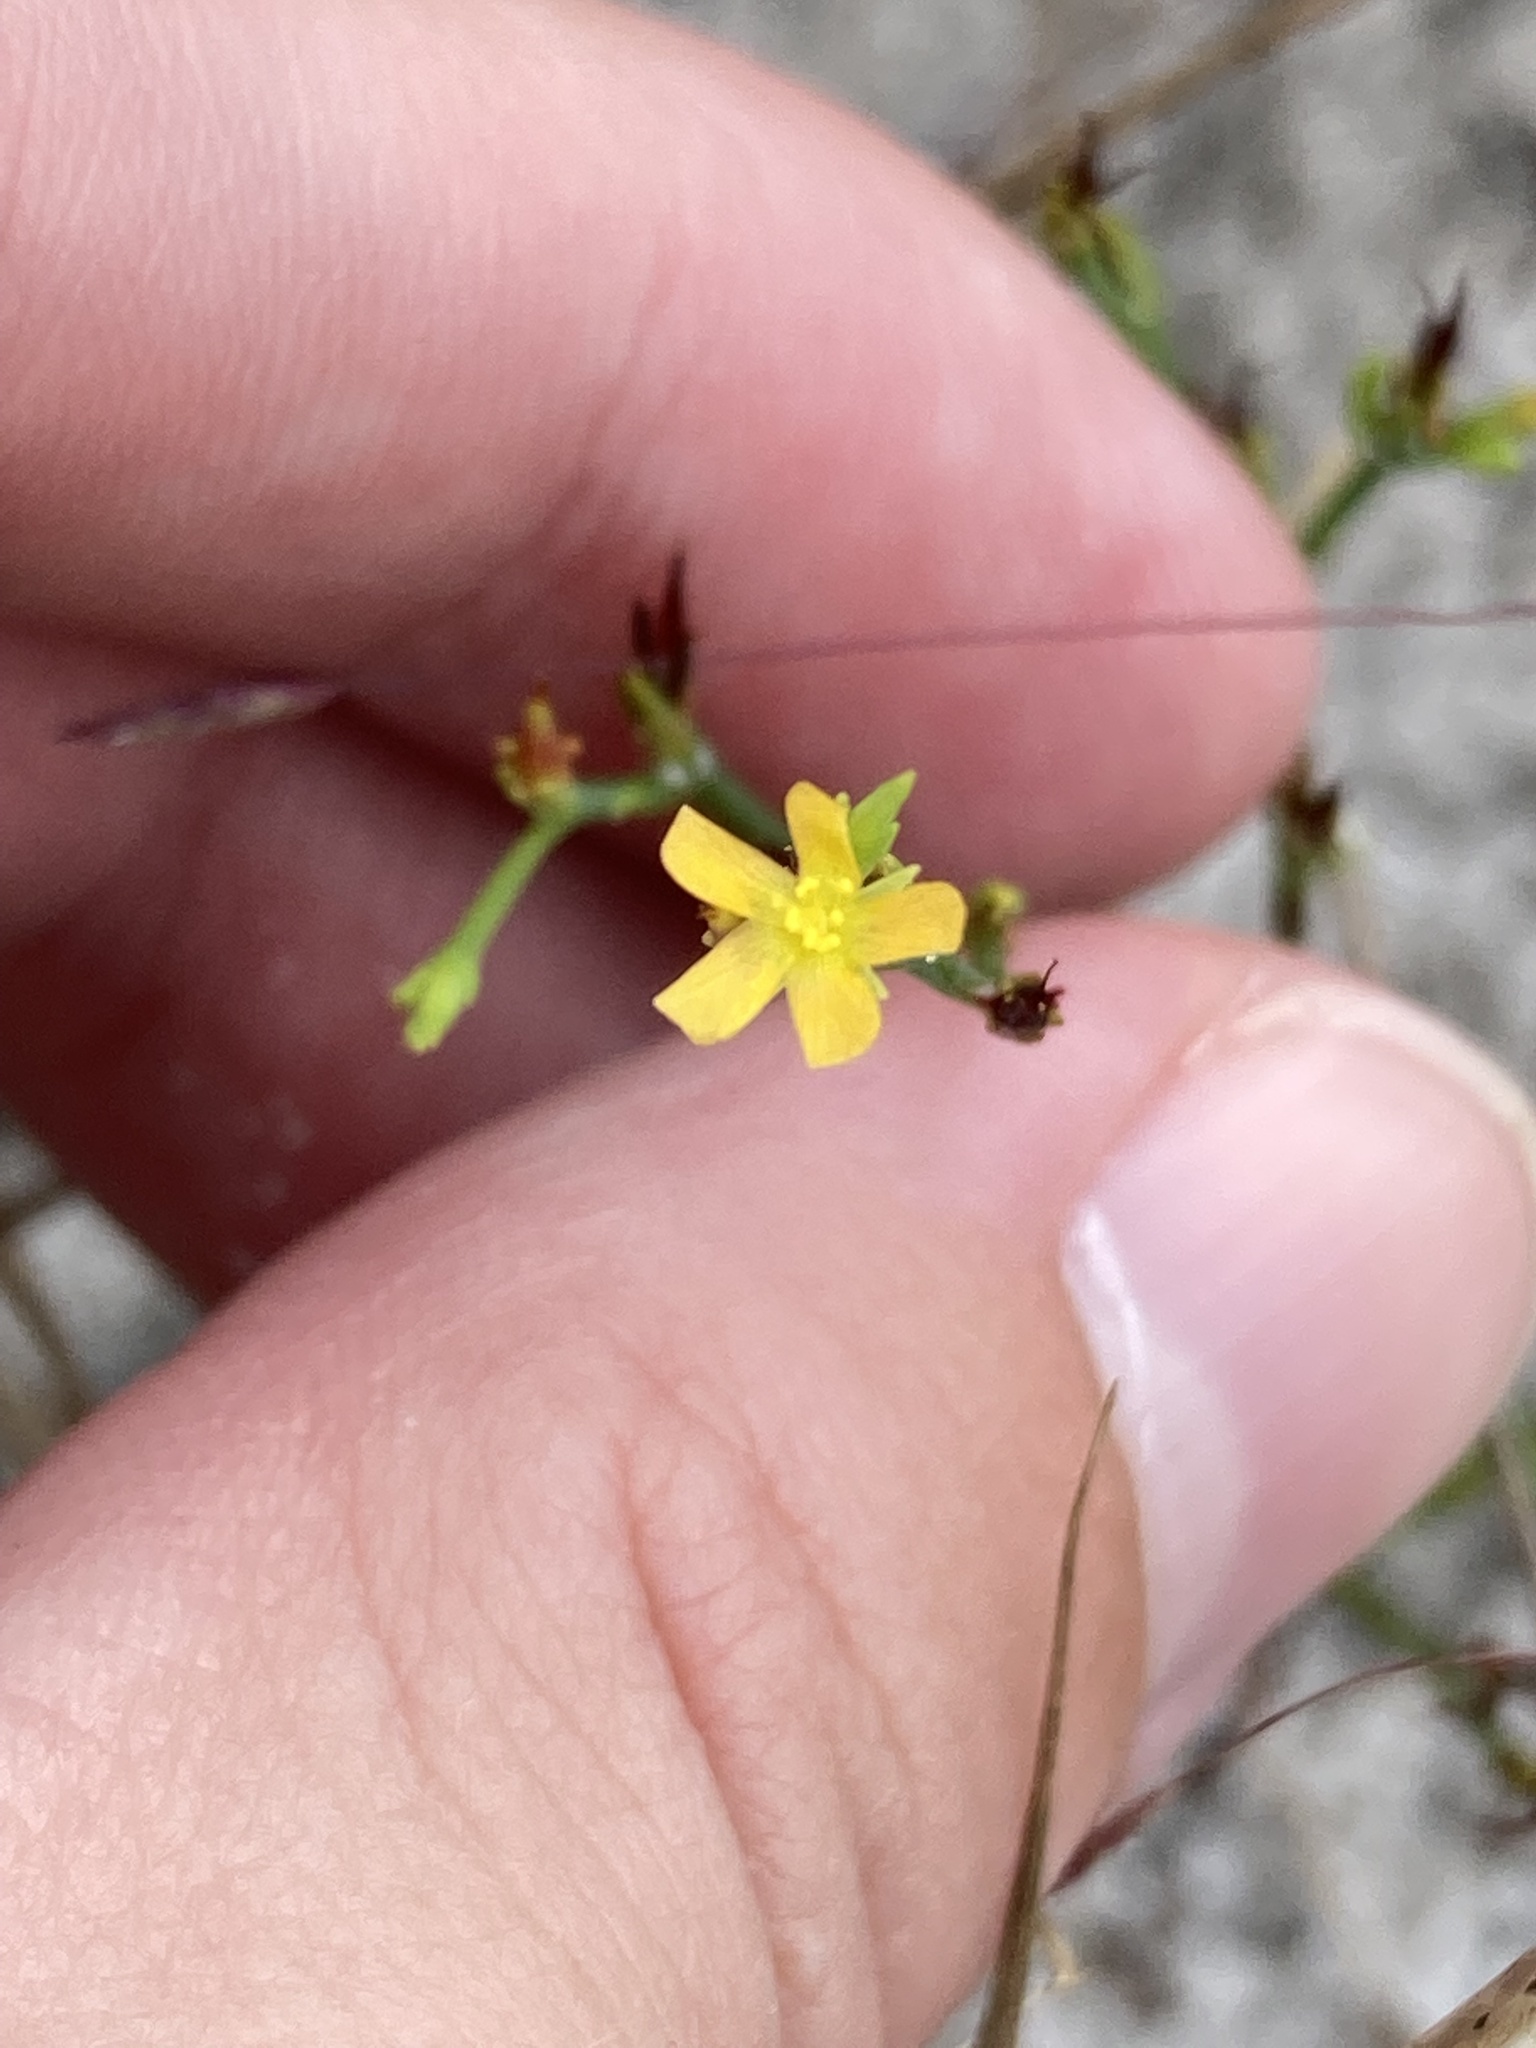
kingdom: Plantae
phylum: Tracheophyta
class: Magnoliopsida
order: Malpighiales
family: Hypericaceae
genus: Hypericum
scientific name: Hypericum gentianoides
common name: Gentian-leaved st. john's-wort
